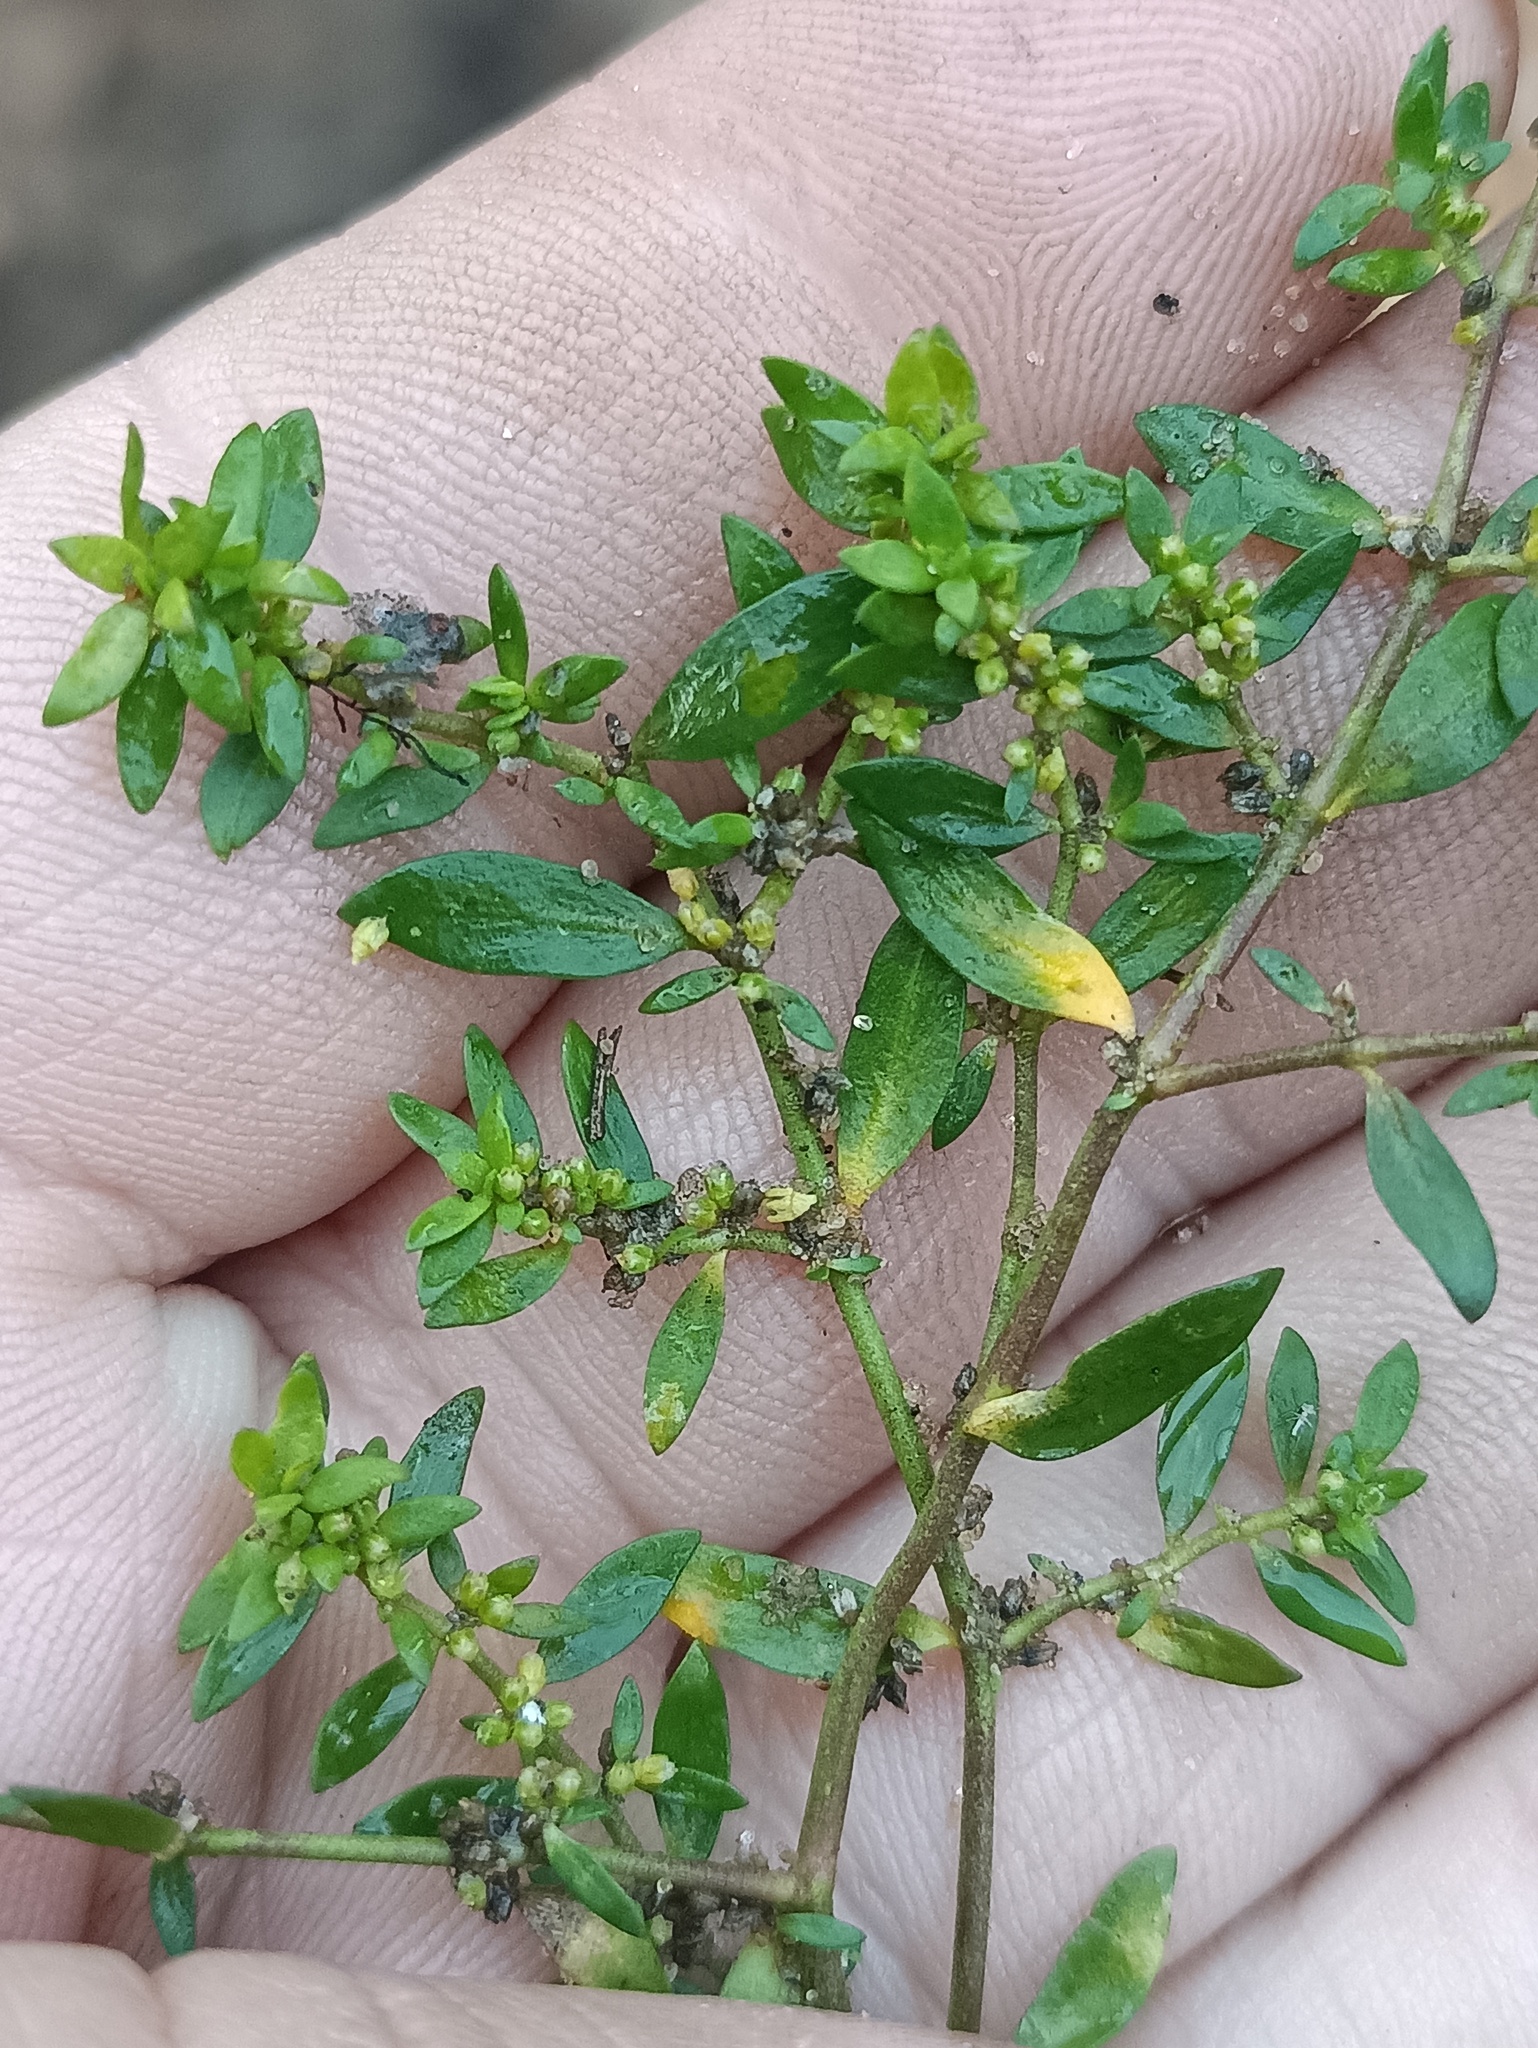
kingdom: Plantae
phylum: Tracheophyta
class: Magnoliopsida
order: Caryophyllales
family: Caryophyllaceae
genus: Herniaria
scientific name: Herniaria glabra
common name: Smooth rupturewort
